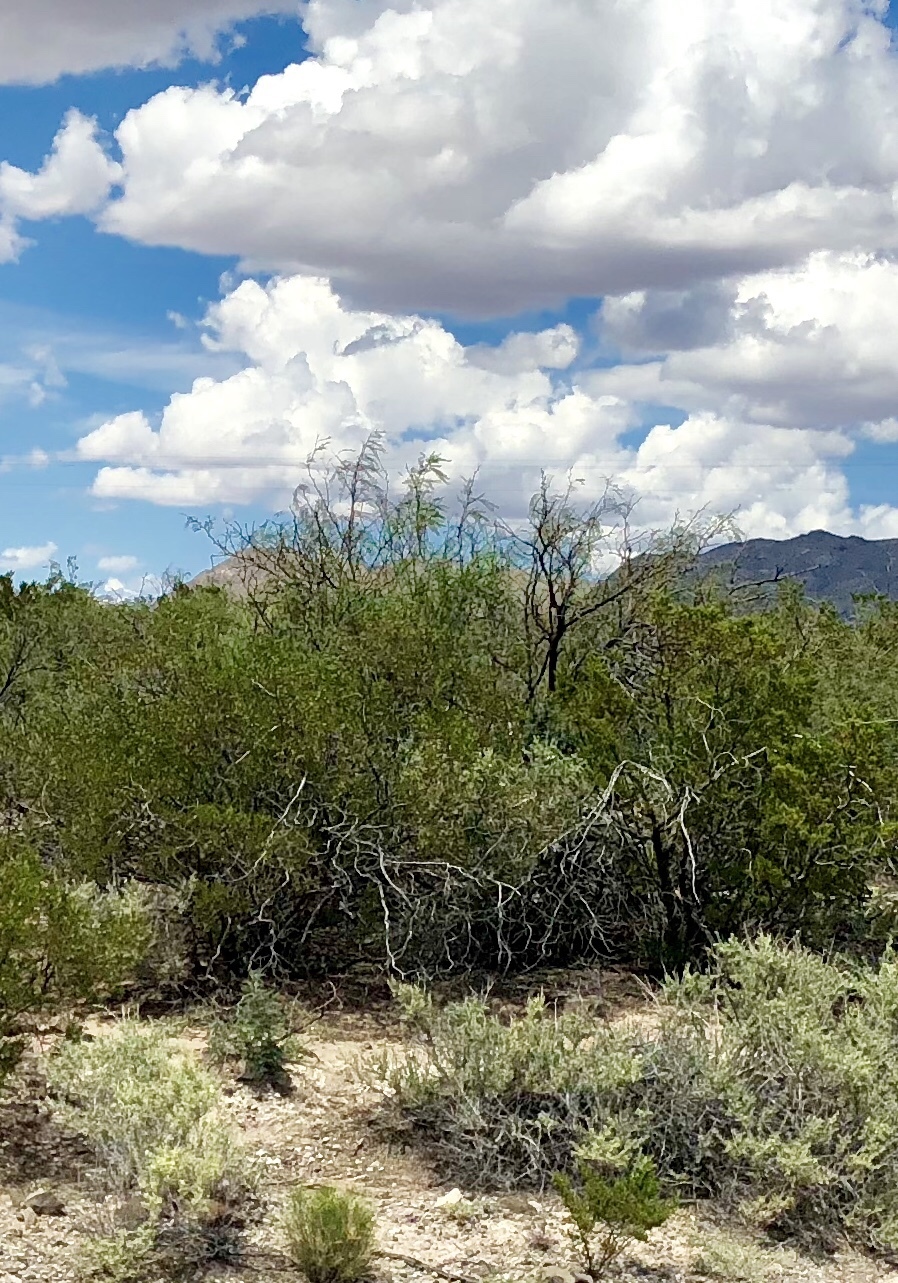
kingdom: Plantae
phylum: Tracheophyta
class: Magnoliopsida
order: Fabales
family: Fabaceae
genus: Prosopis
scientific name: Prosopis glandulosa
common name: Honey mesquite
